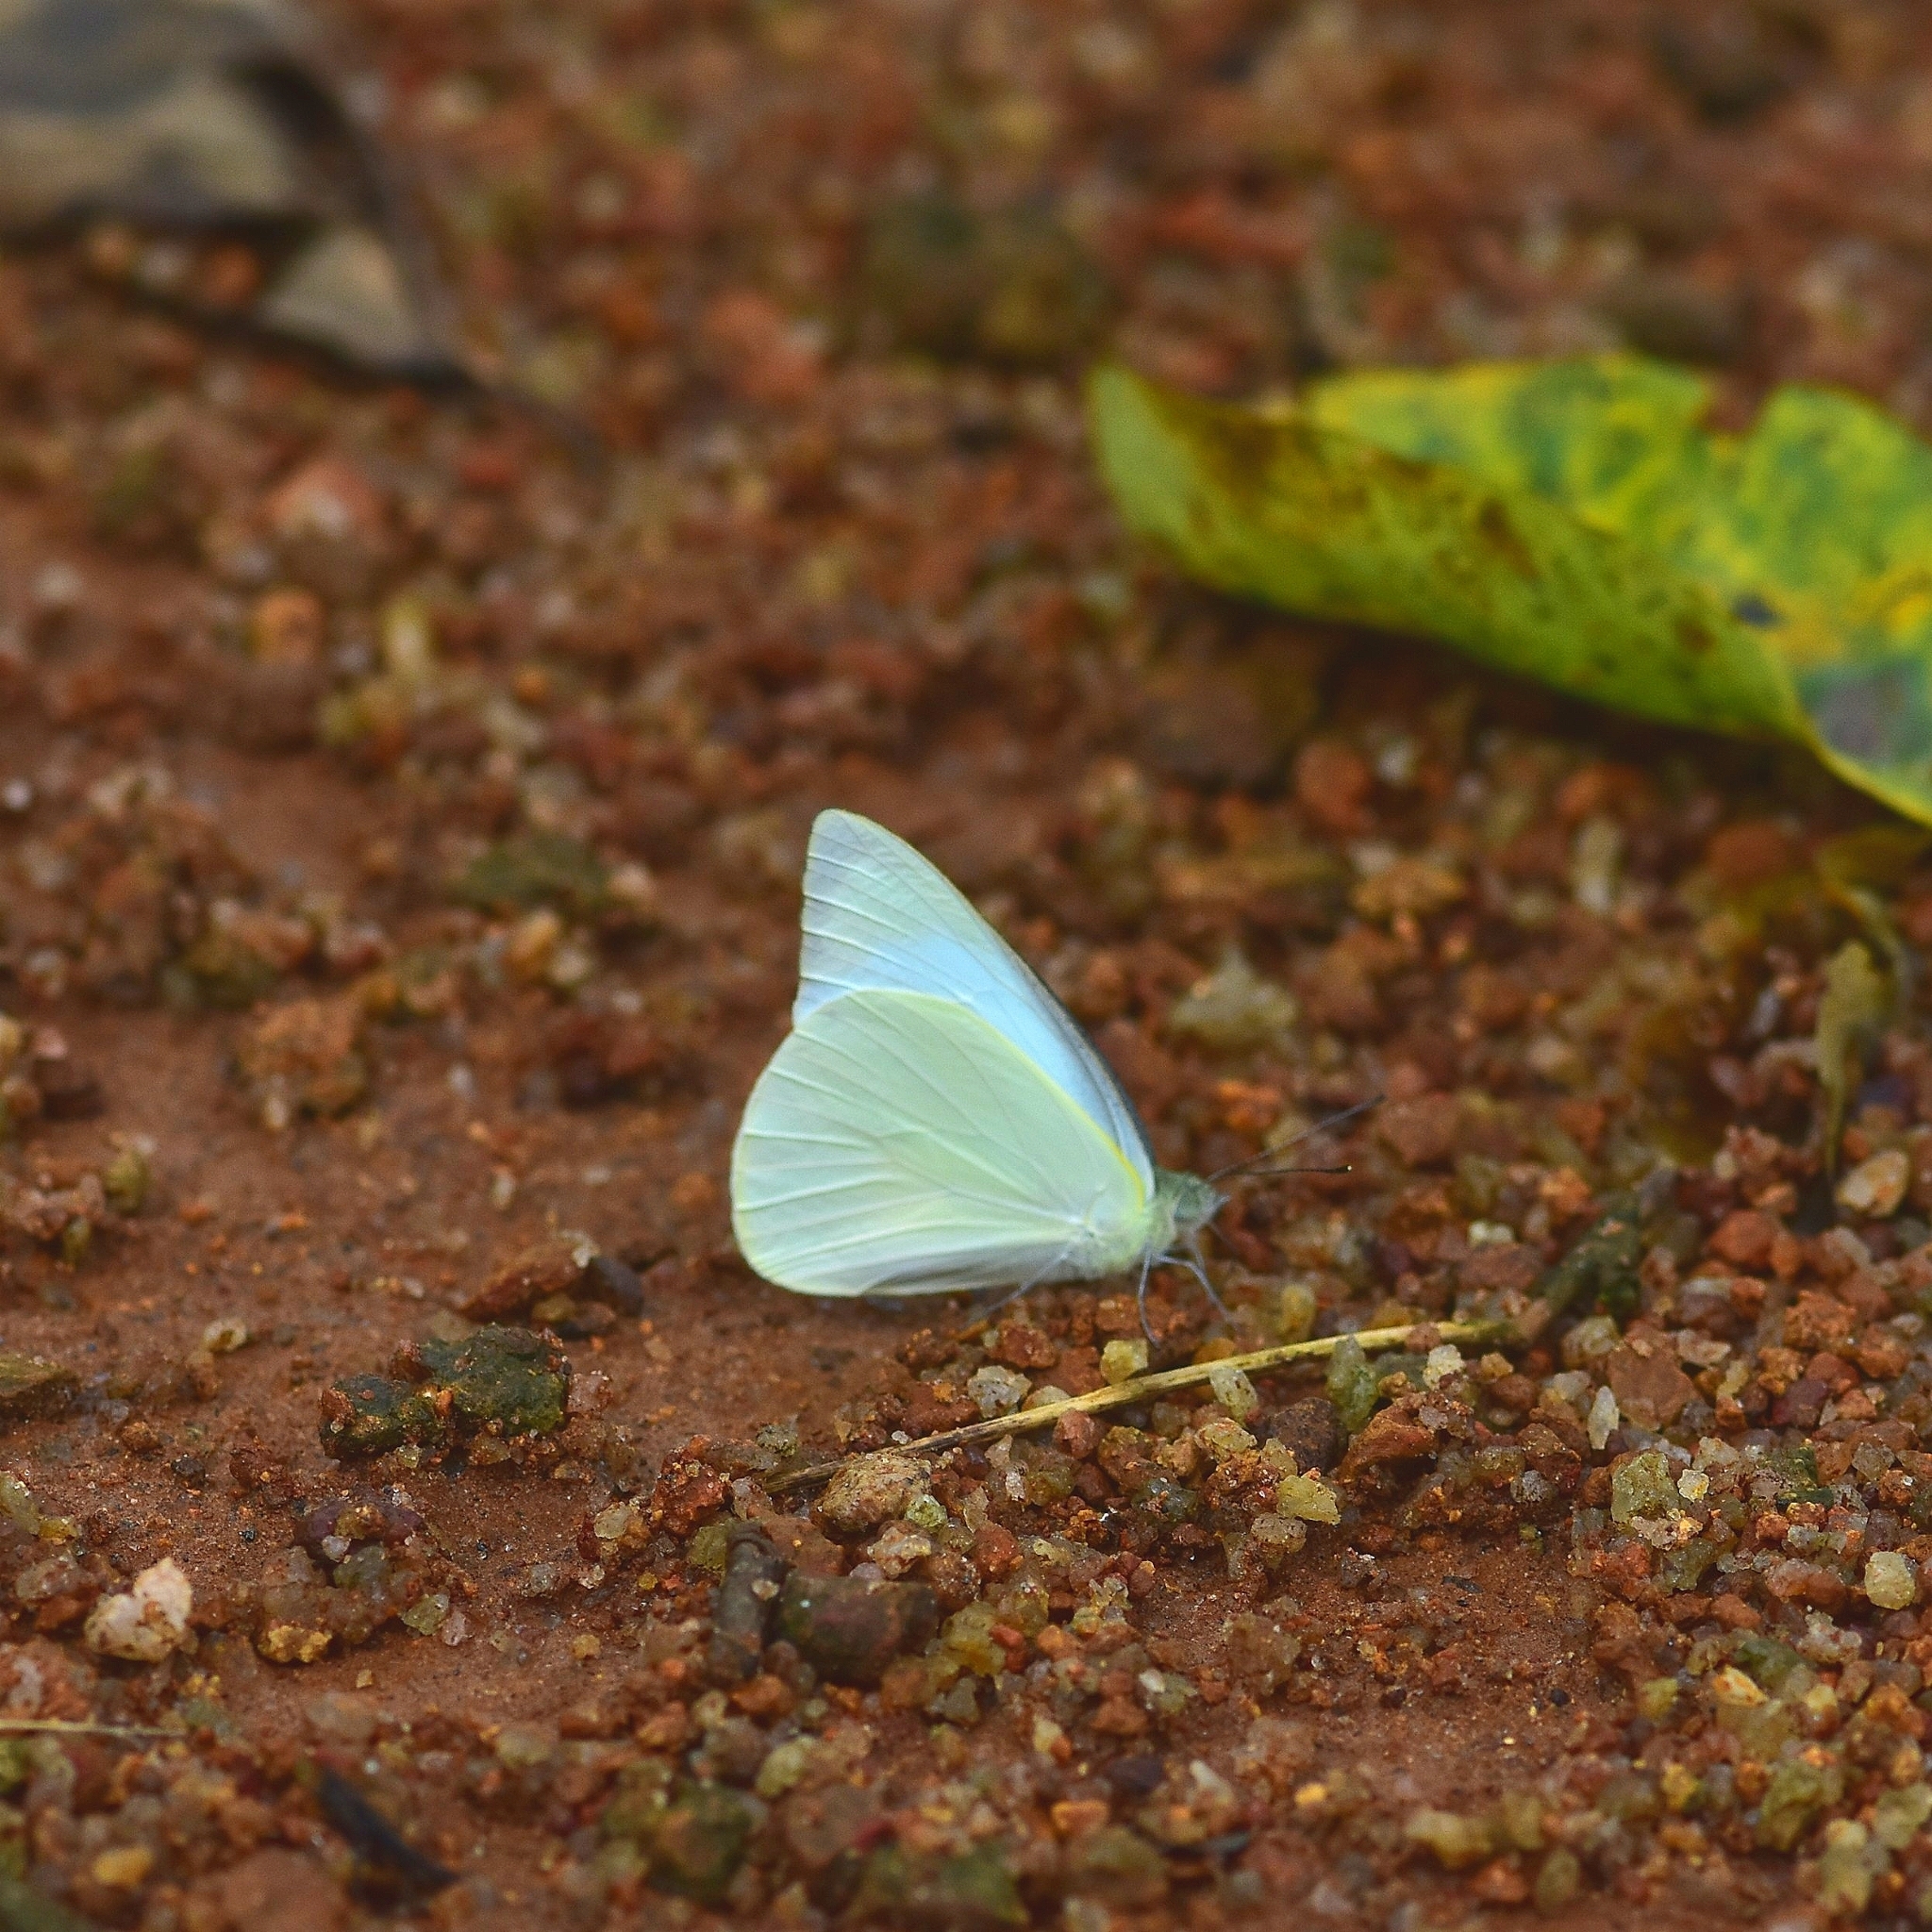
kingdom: Animalia
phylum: Arthropoda
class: Insecta
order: Lepidoptera
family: Pieridae
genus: Appias
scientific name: Appias albina
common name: Common albatross
